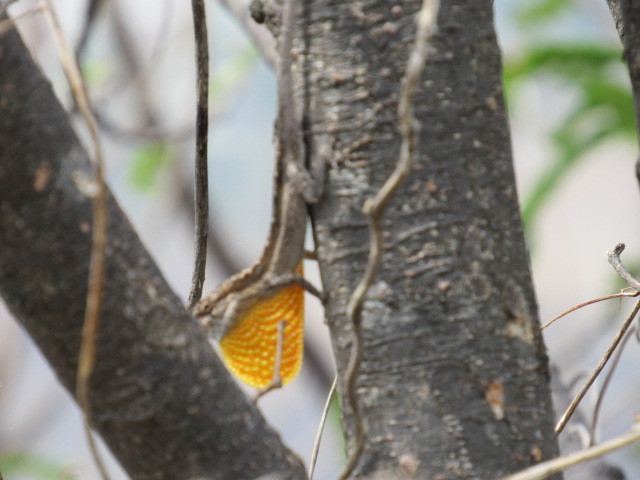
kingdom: Animalia
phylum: Chordata
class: Squamata
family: Dactyloidae
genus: Anolis
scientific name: Anolis nebulosus
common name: Clouded anole
